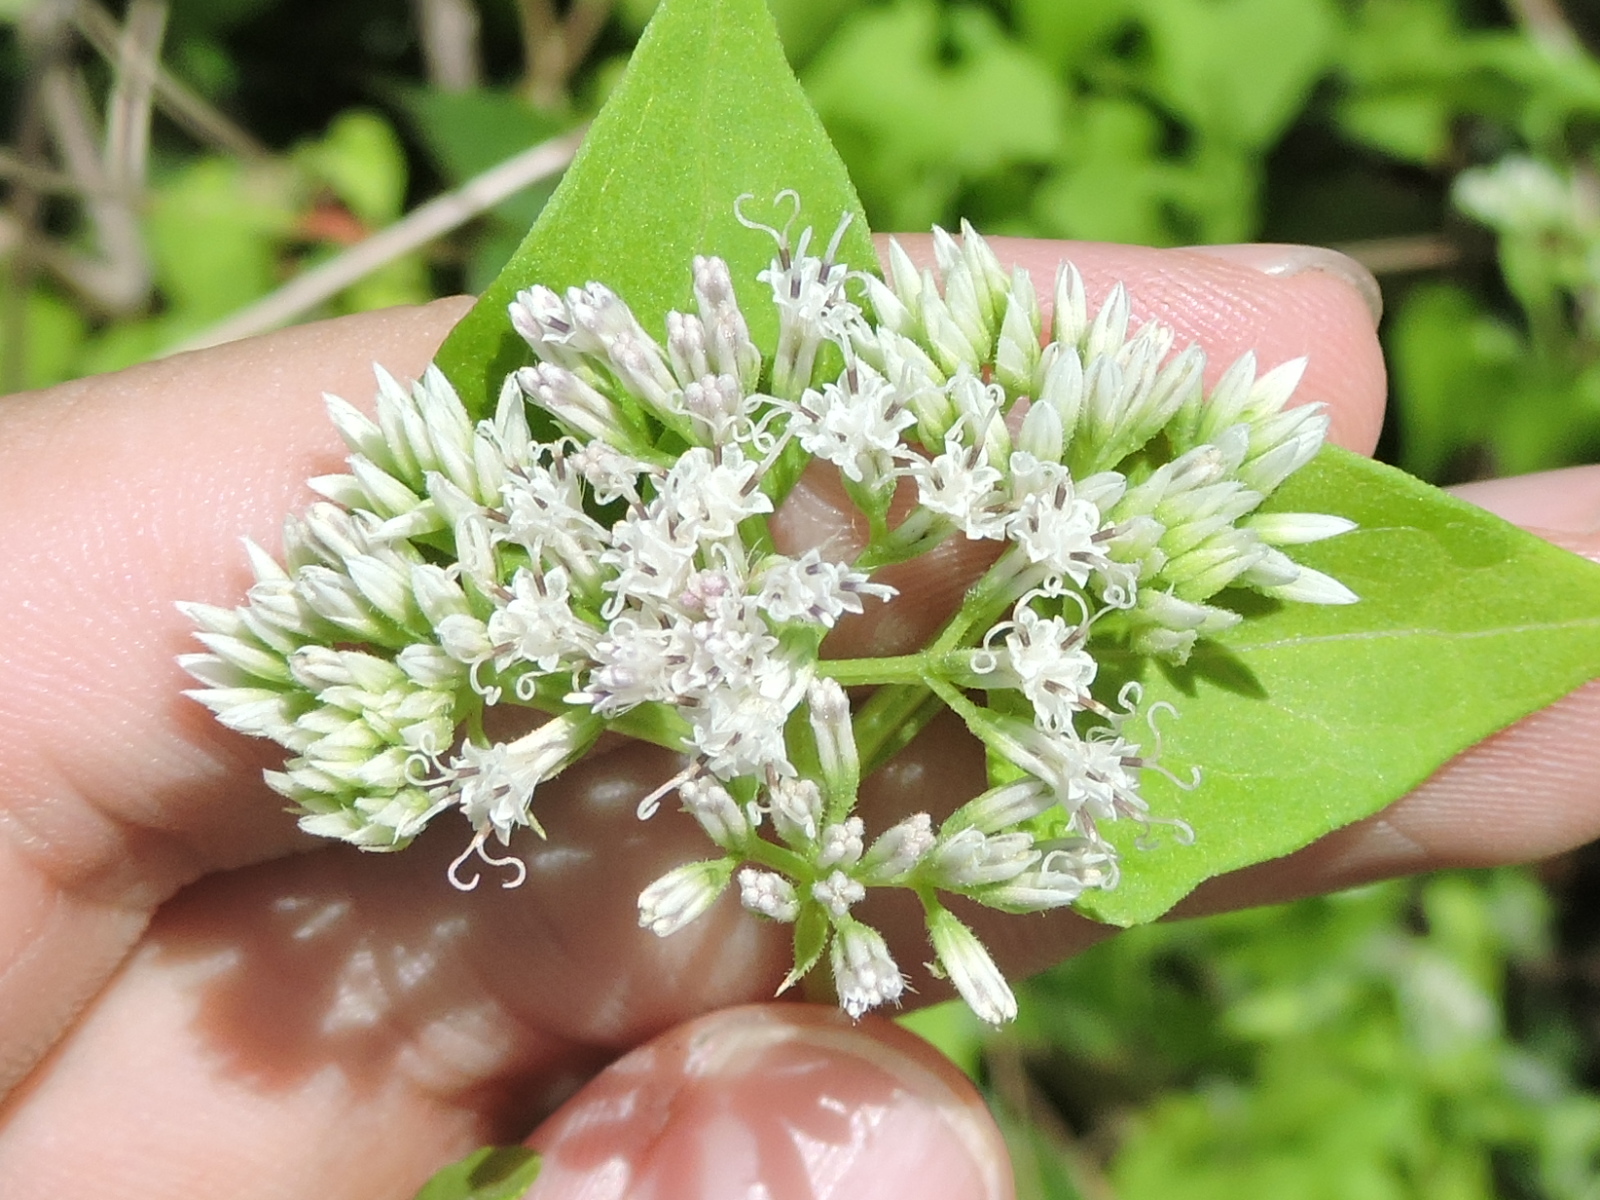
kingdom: Plantae
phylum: Tracheophyta
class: Magnoliopsida
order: Asterales
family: Asteraceae
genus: Mikania
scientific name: Mikania scandens
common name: Climbing hempvine
